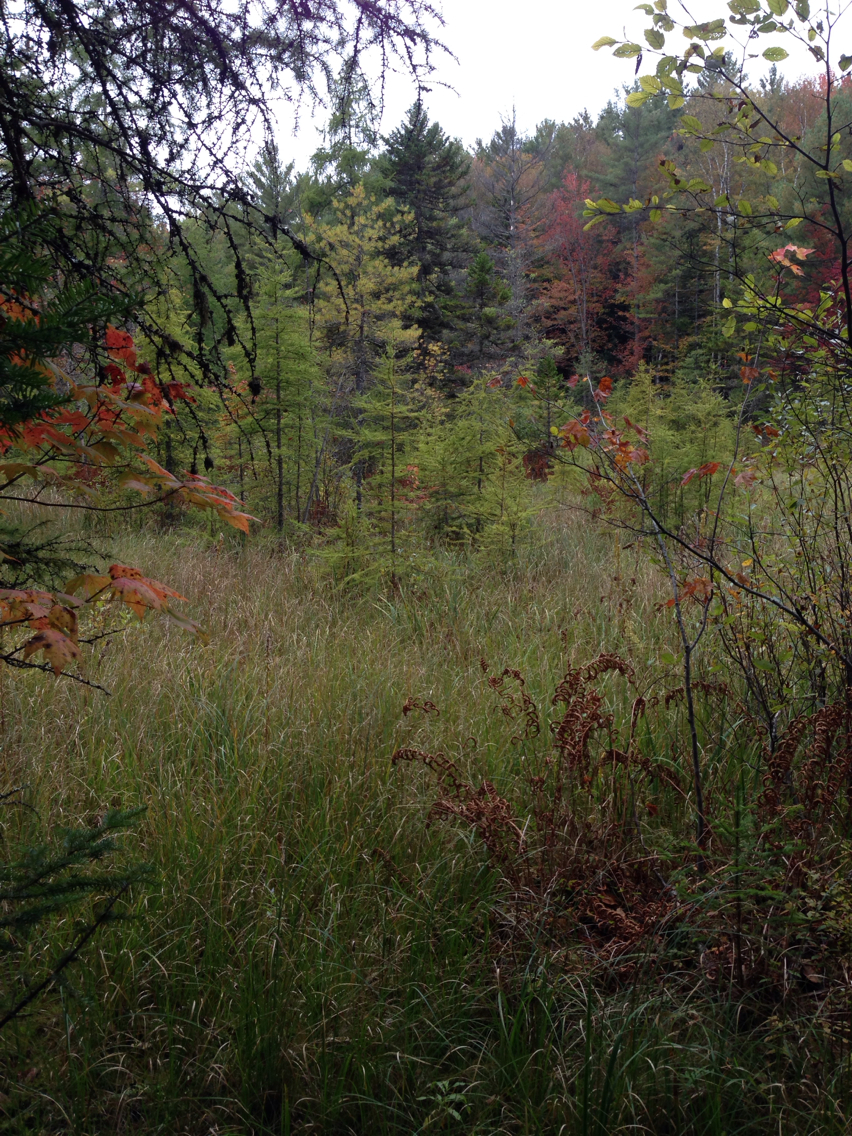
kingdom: Plantae
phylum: Tracheophyta
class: Pinopsida
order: Pinales
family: Pinaceae
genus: Larix
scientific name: Larix laricina
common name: American larch
